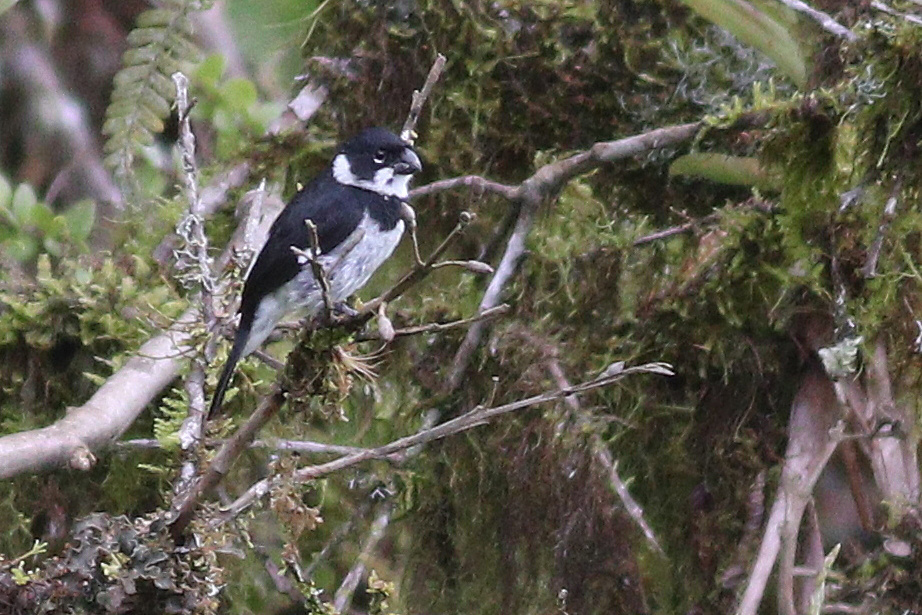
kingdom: Animalia
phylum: Chordata
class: Aves
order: Passeriformes
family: Thraupidae
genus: Sporophila
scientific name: Sporophila corvina
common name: Variable seedeater
